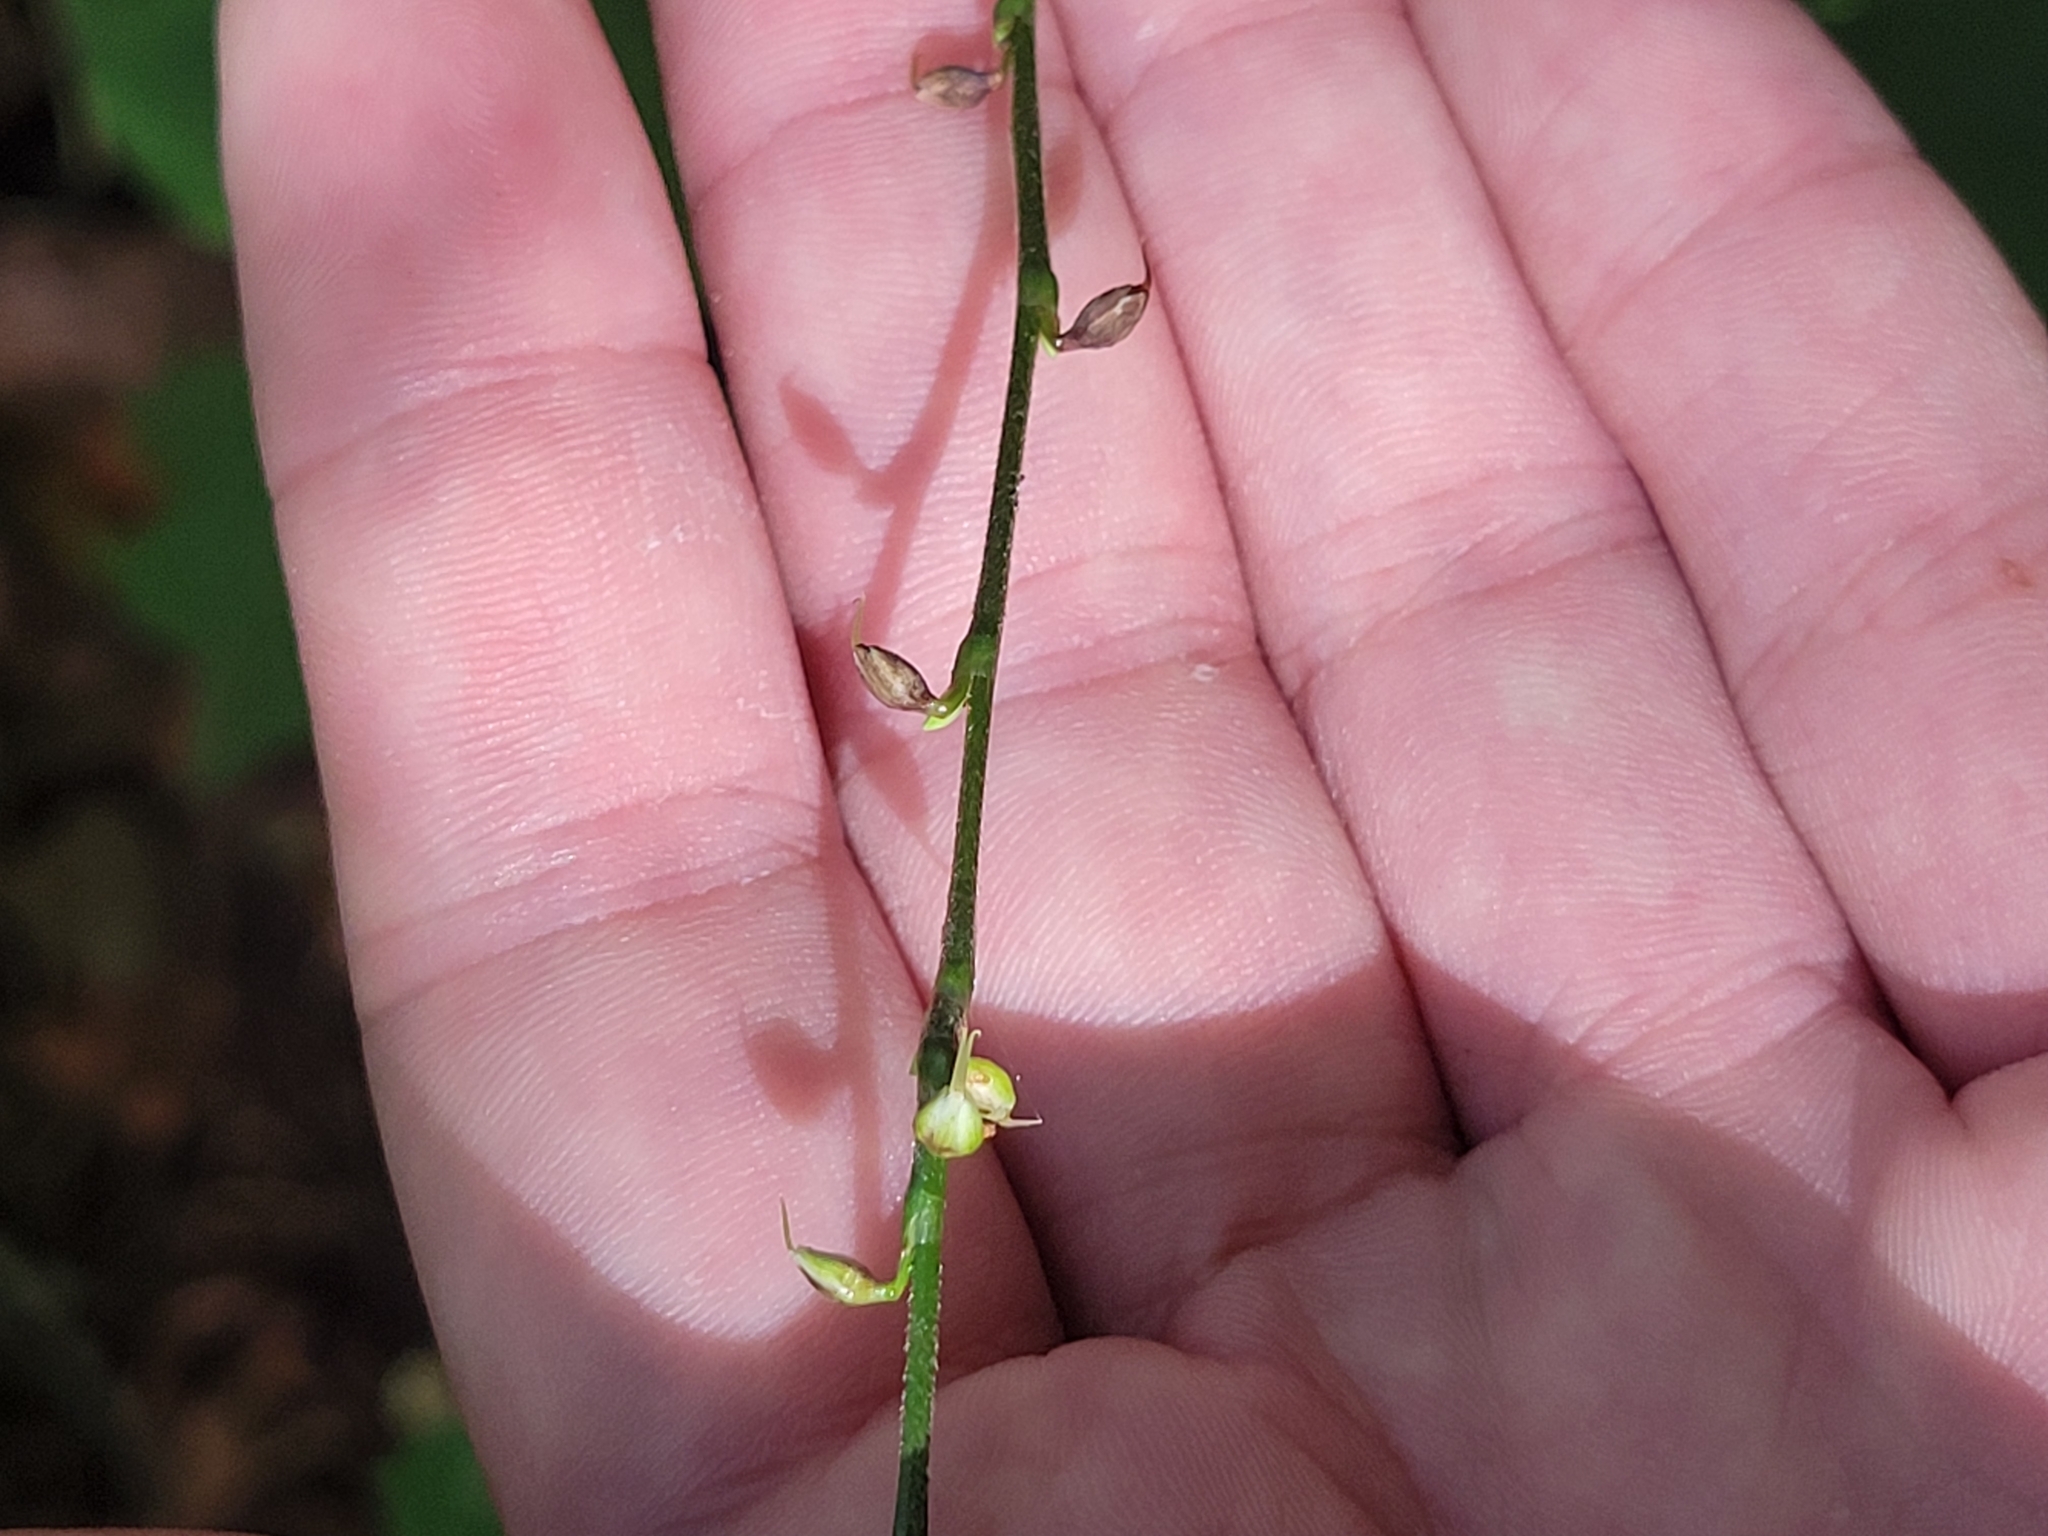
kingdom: Plantae
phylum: Tracheophyta
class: Magnoliopsida
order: Caryophyllales
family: Polygonaceae
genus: Persicaria
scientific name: Persicaria virginiana
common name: Jumpseed
